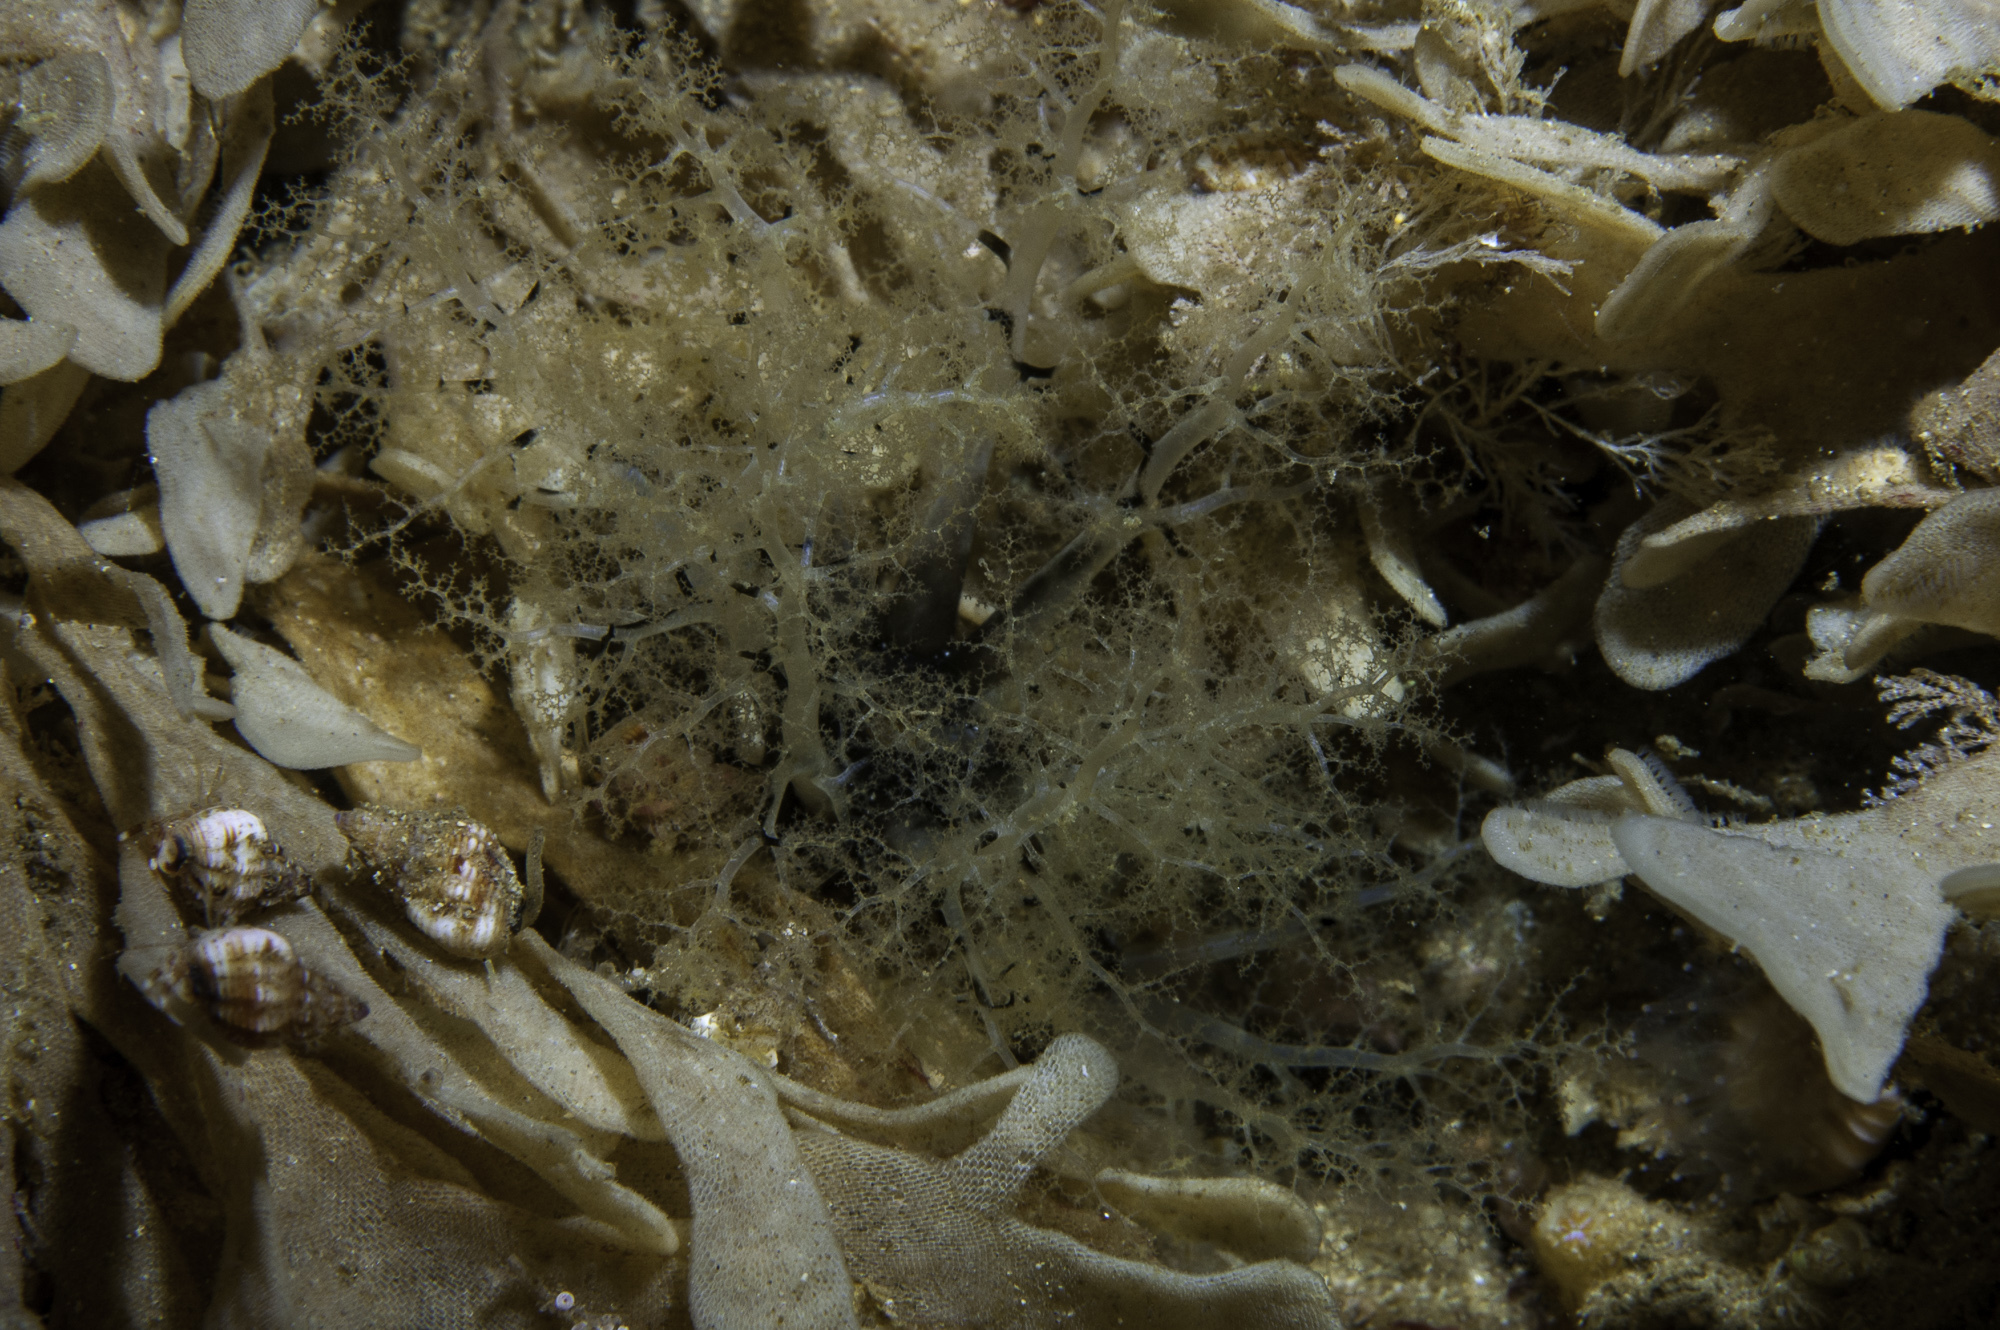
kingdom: Animalia
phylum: Echinodermata
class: Holothuroidea
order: Dendrochirotida
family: Cucumariidae
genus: Aslia
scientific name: Aslia lefevrei
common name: Brown sea cucumber
